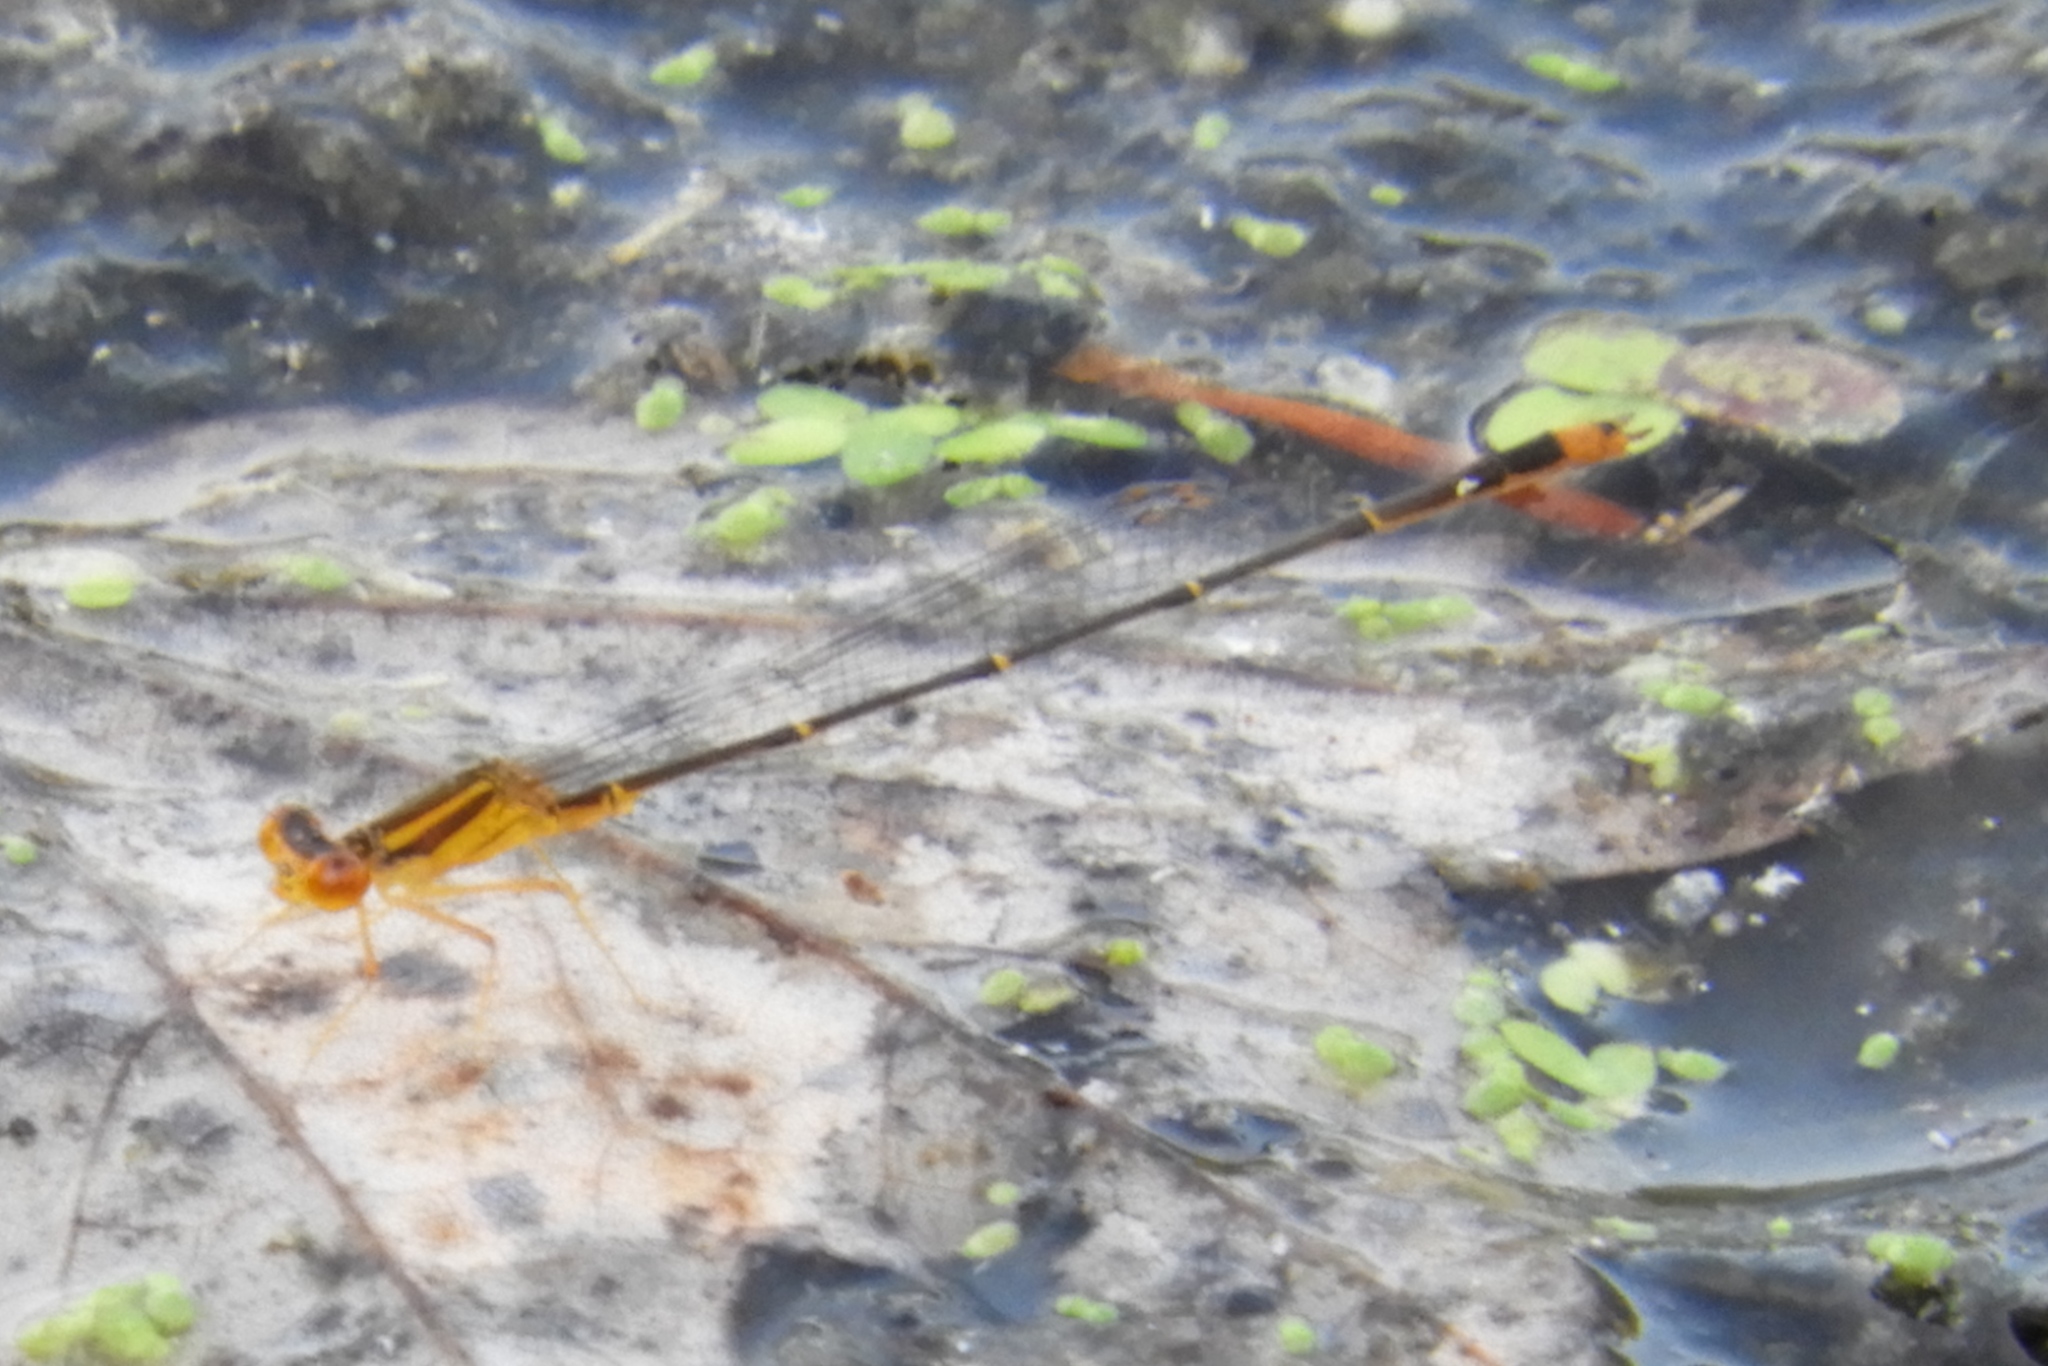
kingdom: Animalia
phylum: Arthropoda
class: Insecta
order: Odonata
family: Coenagrionidae
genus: Enallagma
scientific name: Enallagma signatum
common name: Orange bluet
